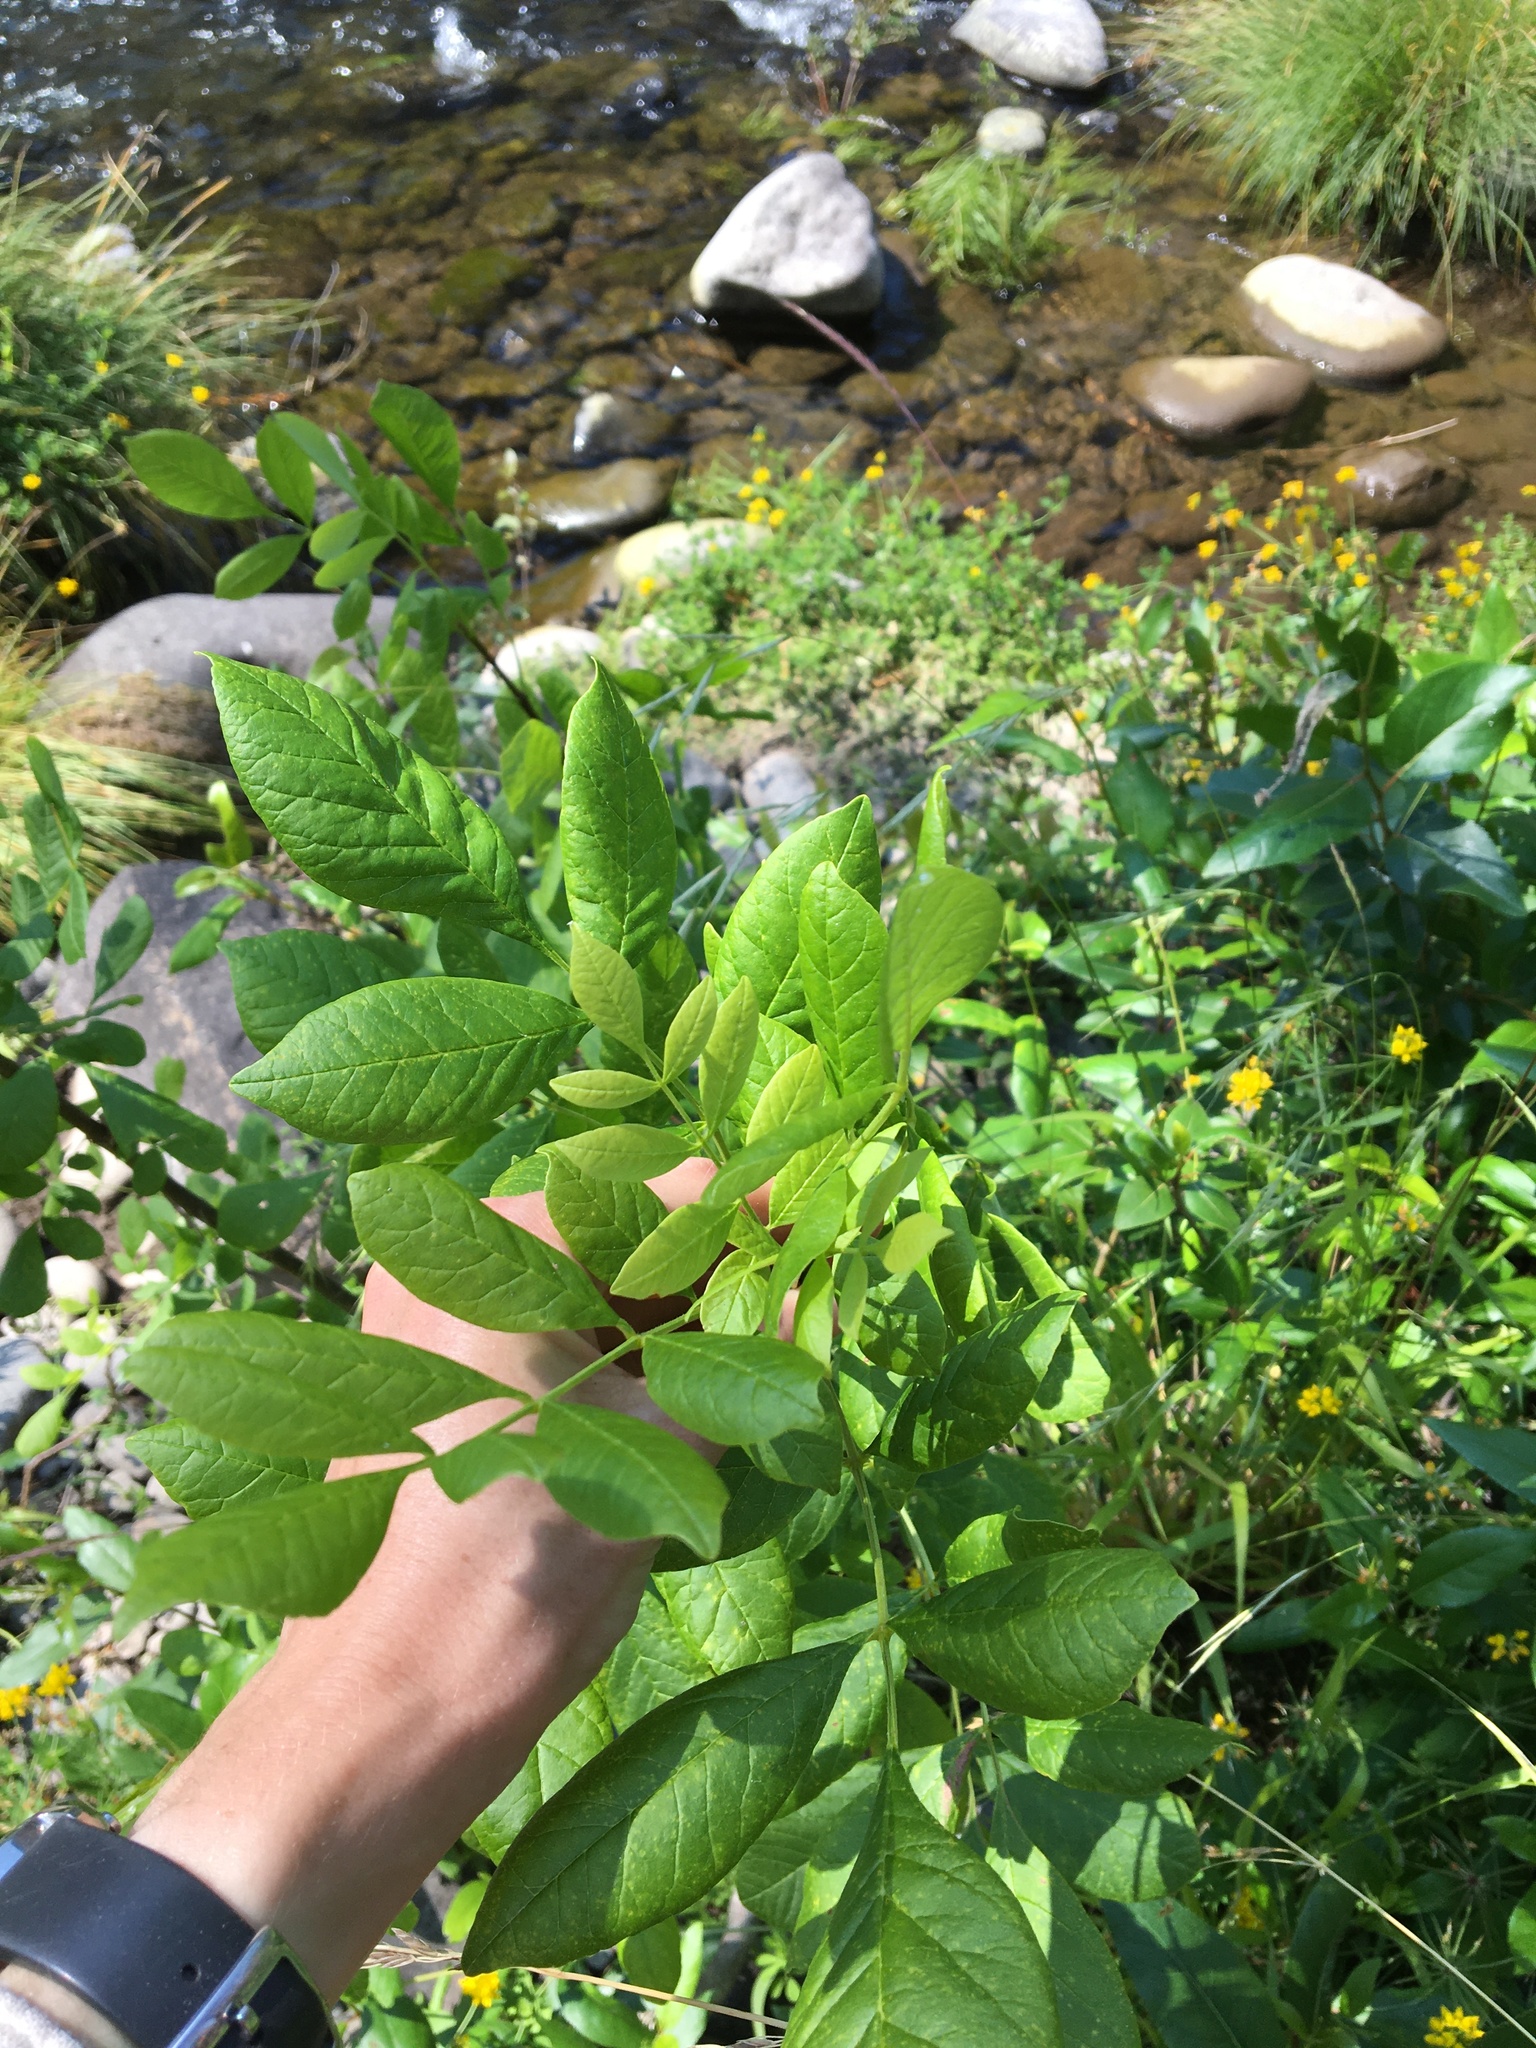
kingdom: Plantae
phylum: Tracheophyta
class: Magnoliopsida
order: Lamiales
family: Oleaceae
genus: Fraxinus
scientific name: Fraxinus latifolia
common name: Oregon ash
